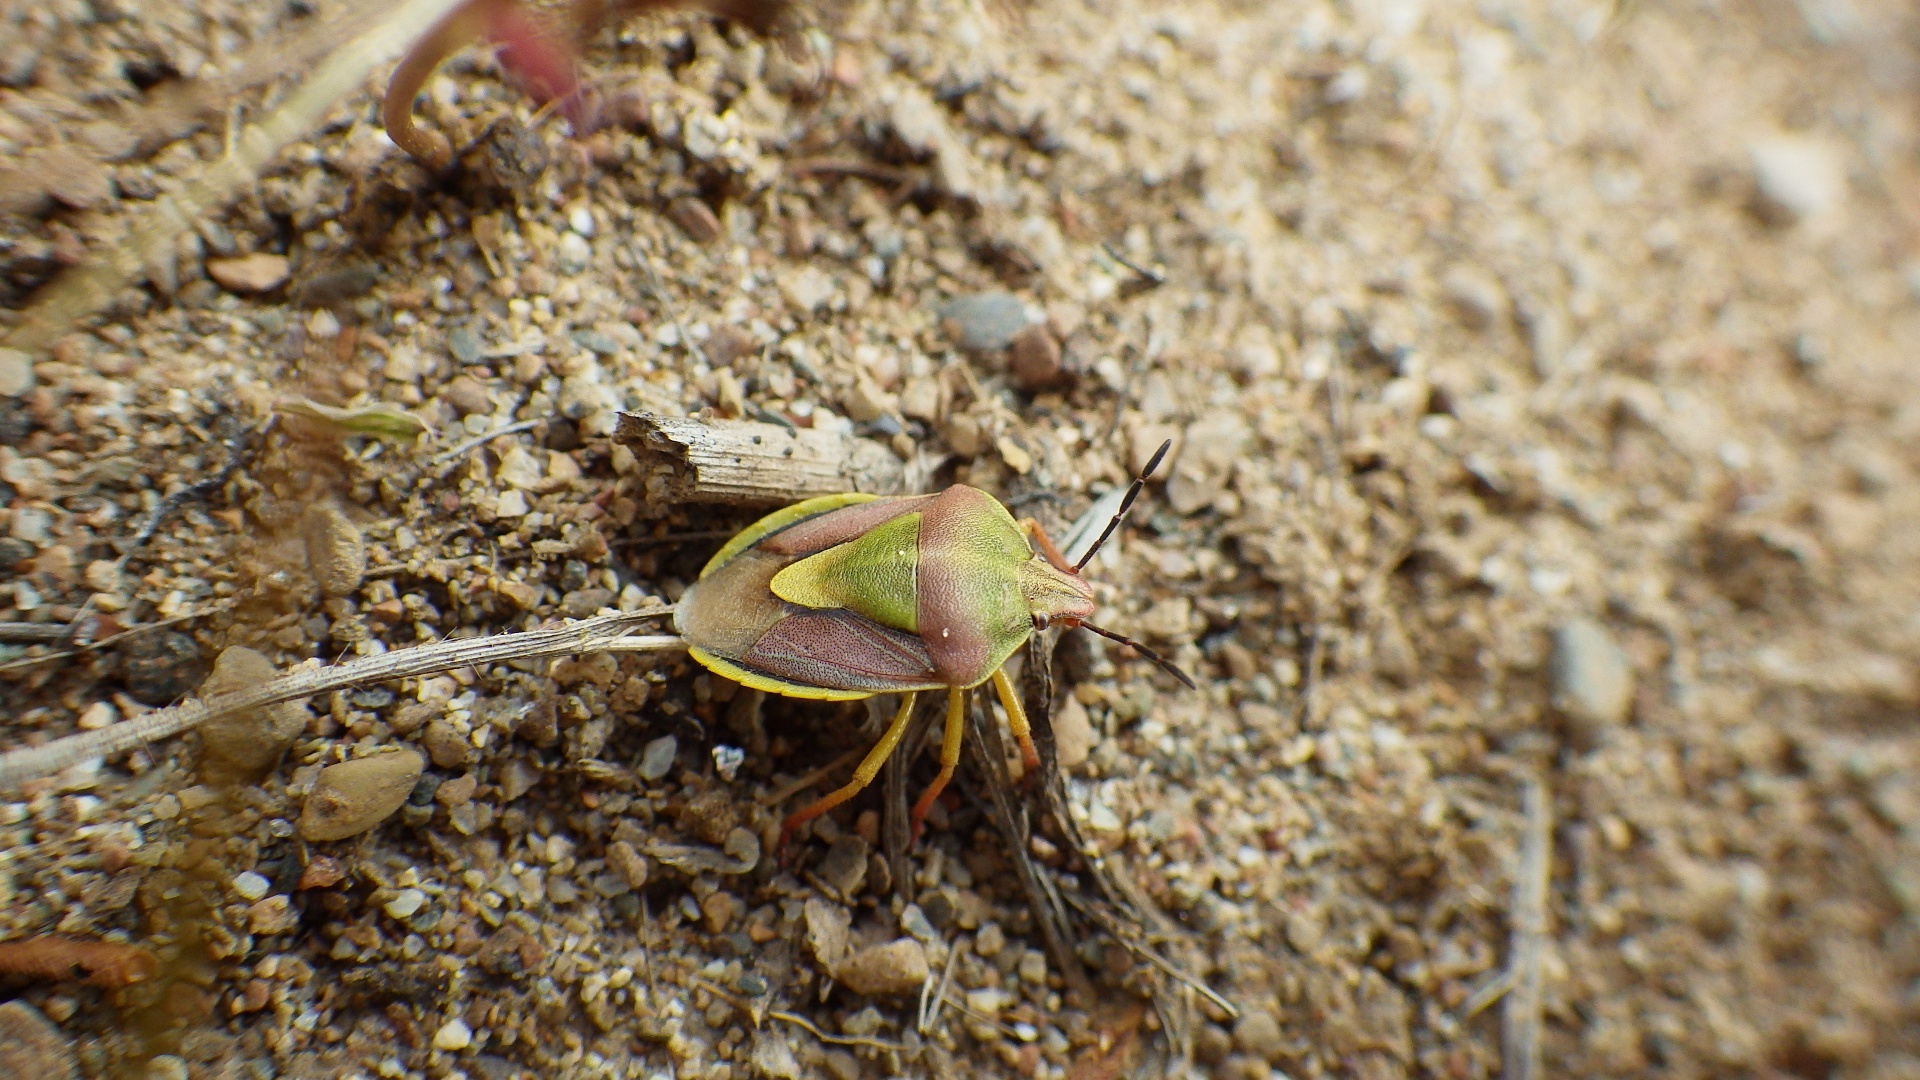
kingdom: Animalia
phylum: Arthropoda
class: Insecta
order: Hemiptera
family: Pentatomidae
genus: Antheminia
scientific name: Antheminia
